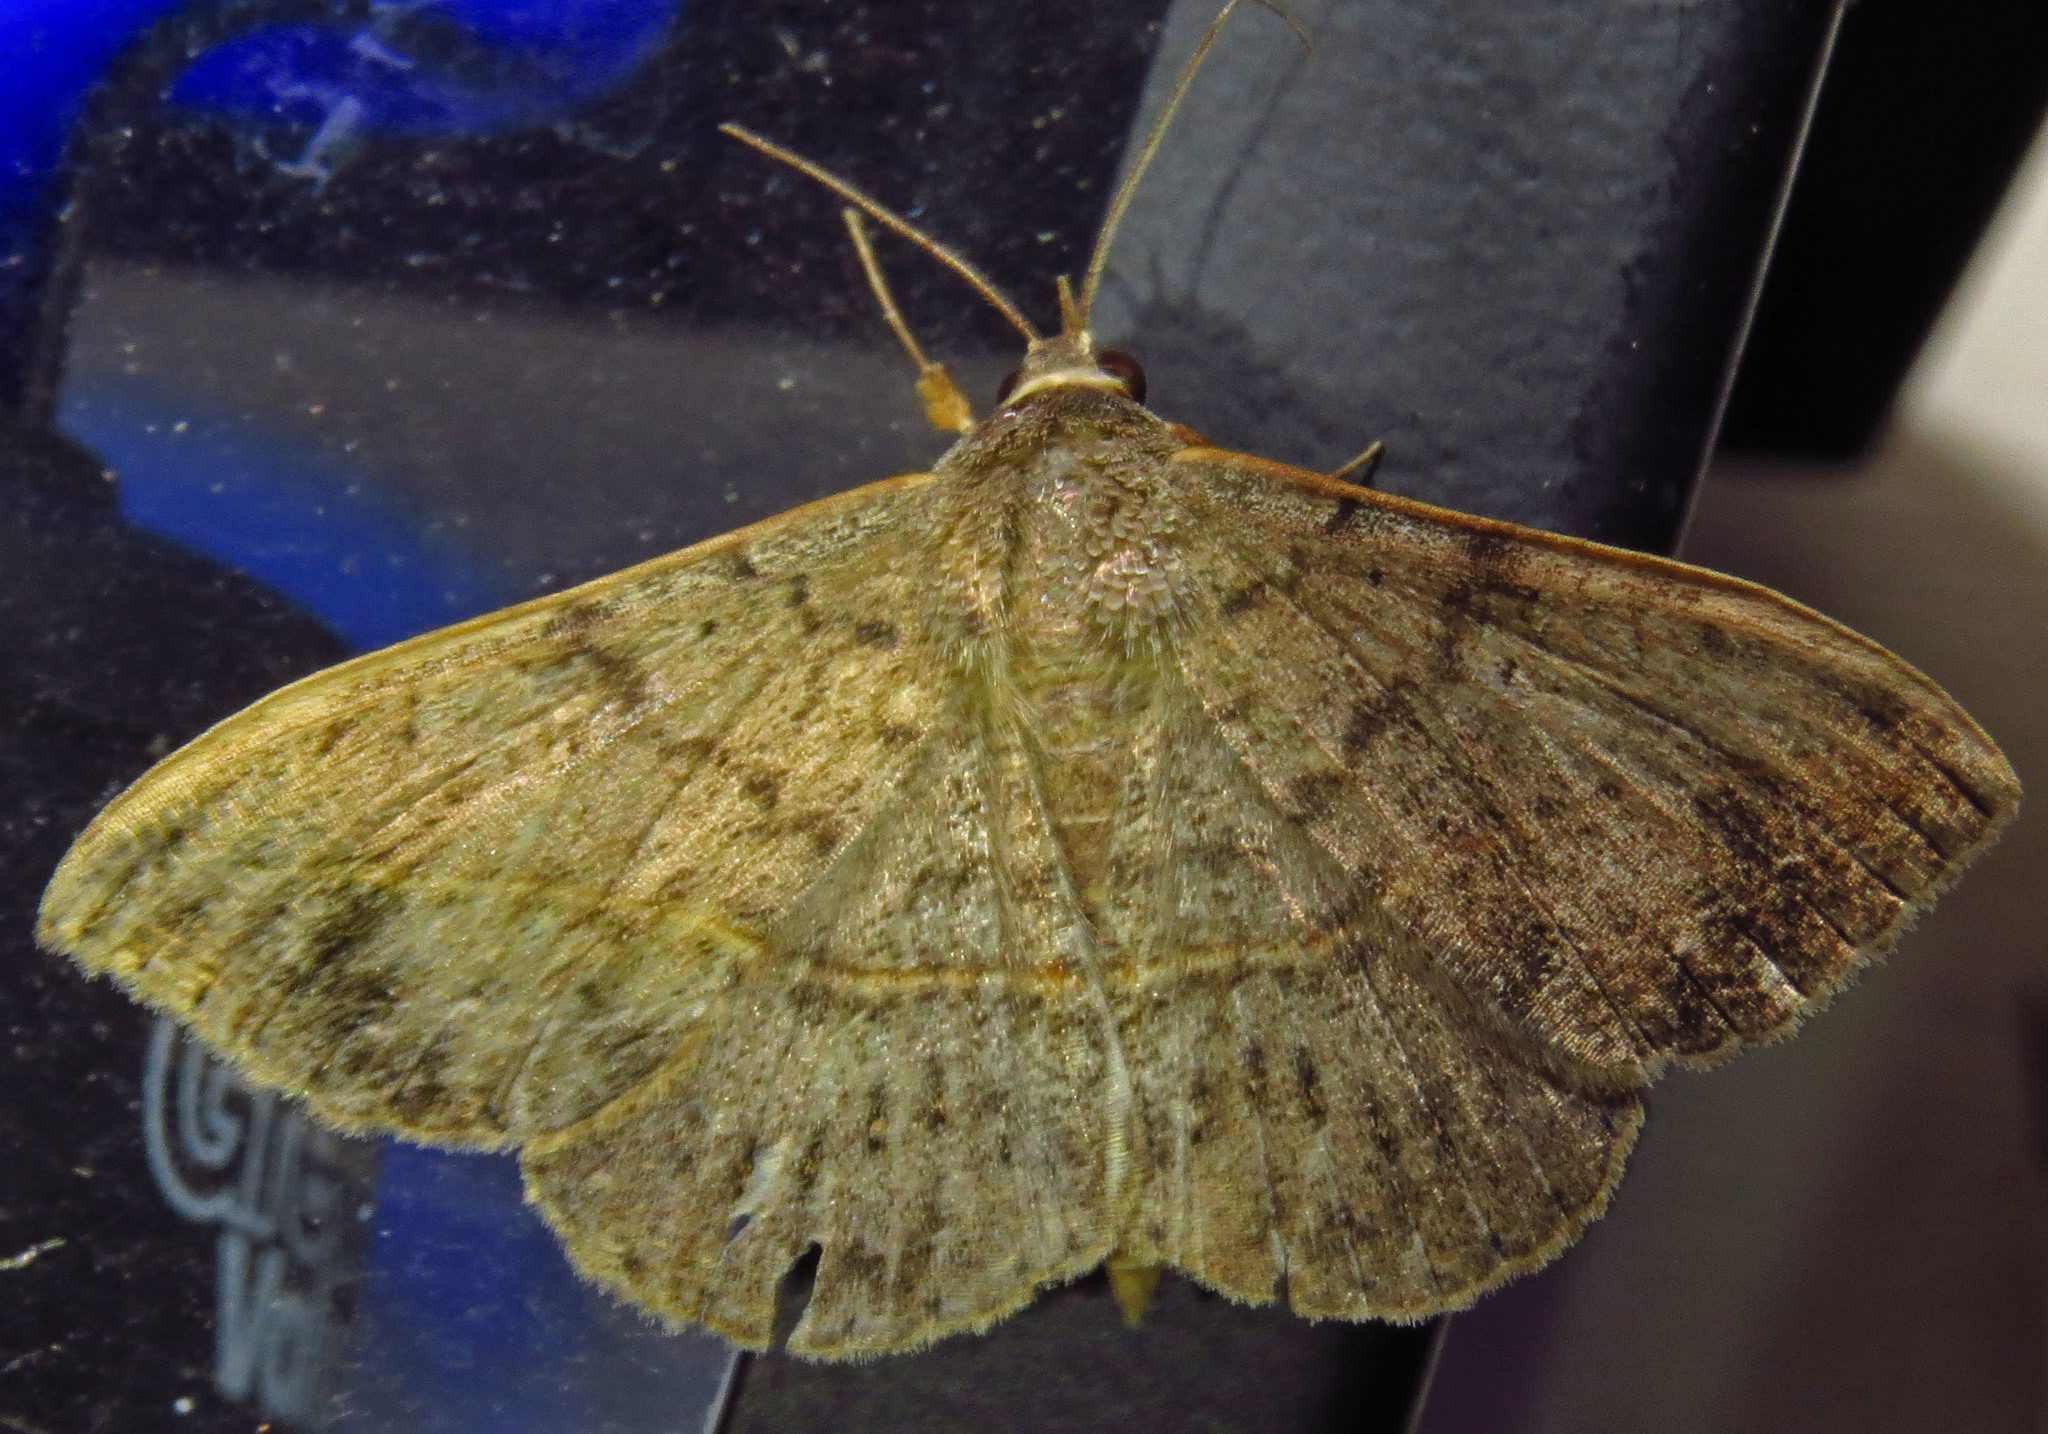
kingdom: Animalia
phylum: Arthropoda
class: Insecta
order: Lepidoptera
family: Erebidae
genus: Anticarsia
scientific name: Anticarsia gemmatalis
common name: Cutworm moth
